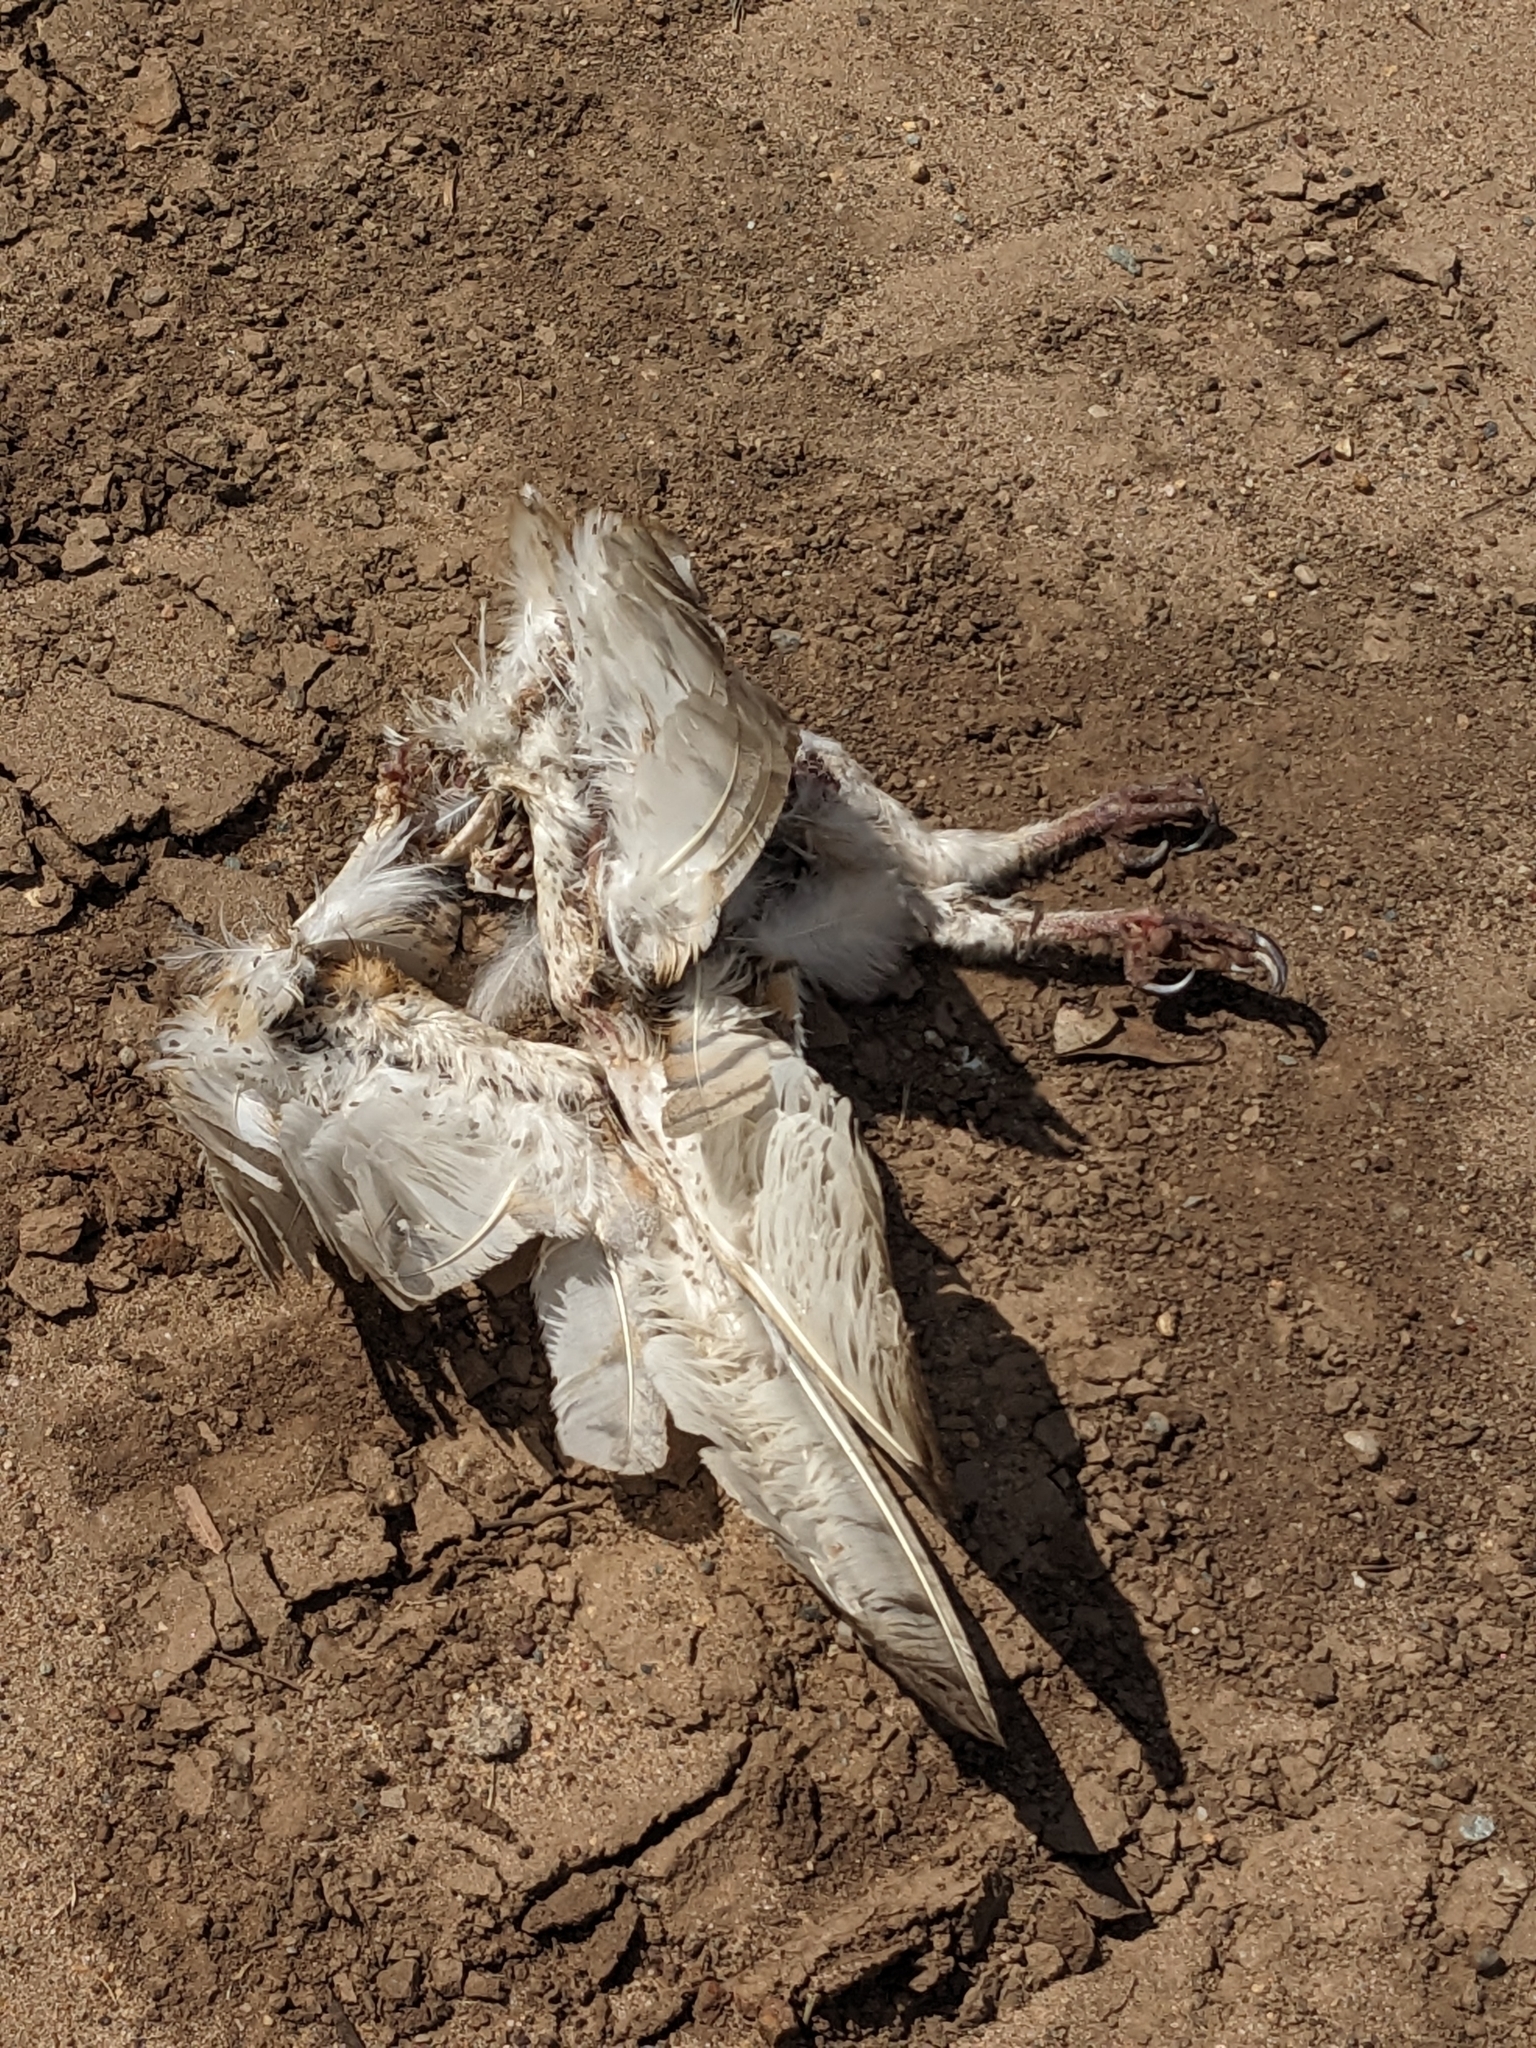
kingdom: Animalia
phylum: Chordata
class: Aves
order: Strigiformes
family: Tytonidae
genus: Tyto
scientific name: Tyto alba
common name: Barn owl
